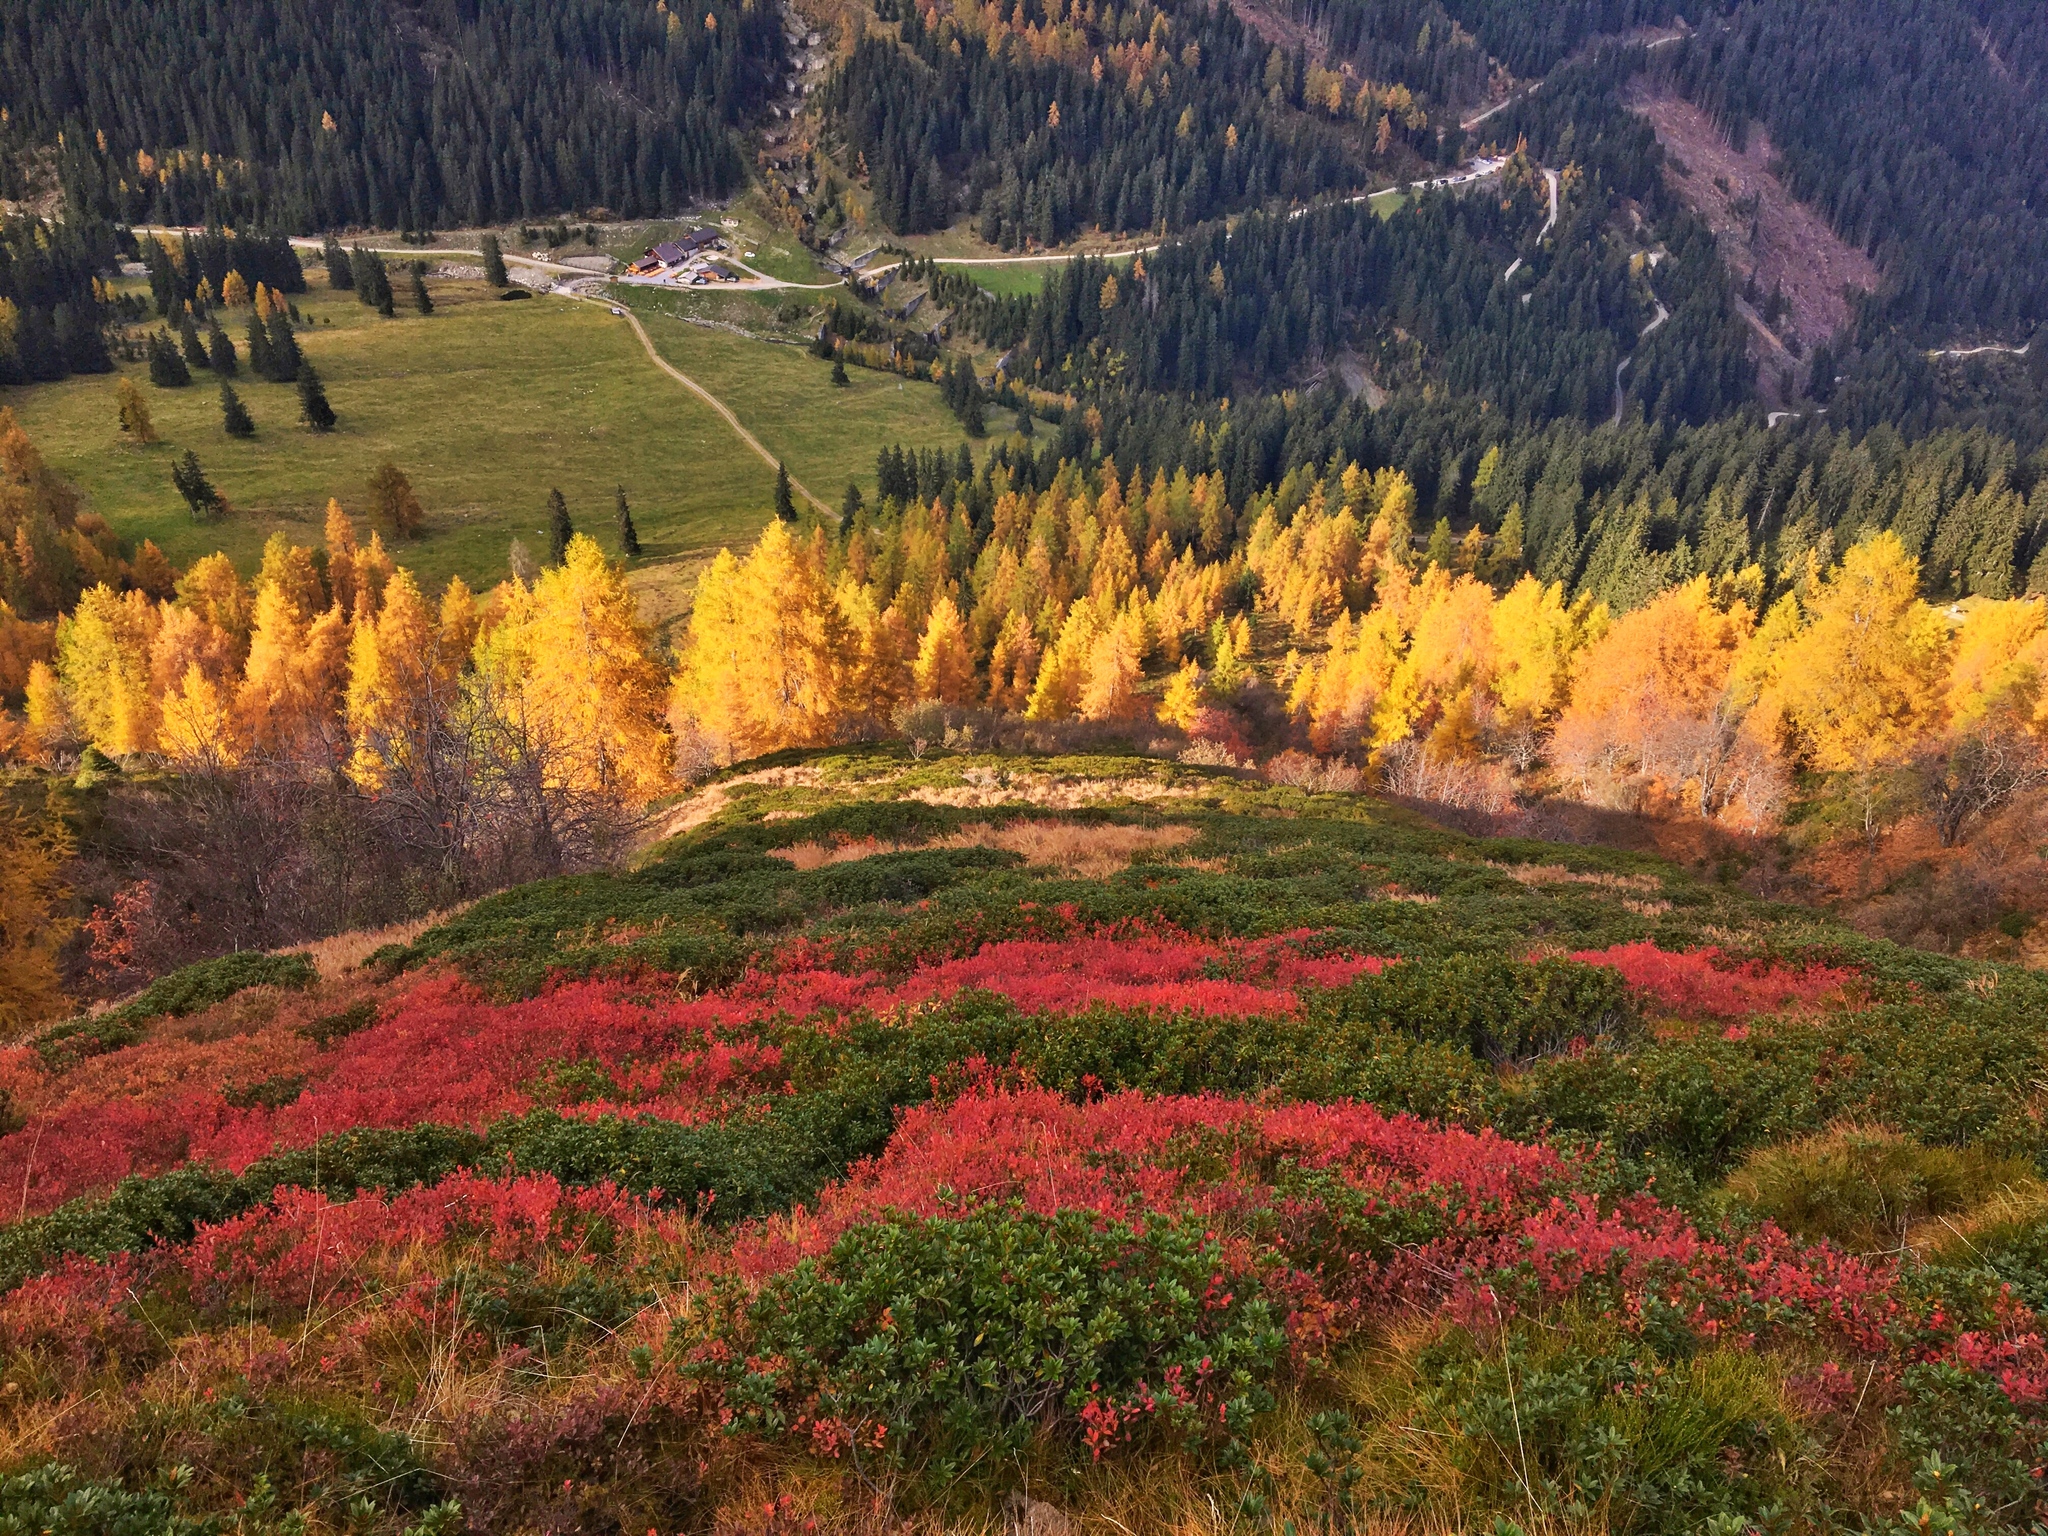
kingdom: Plantae
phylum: Tracheophyta
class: Pinopsida
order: Pinales
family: Pinaceae
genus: Larix
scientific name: Larix decidua
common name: European larch
